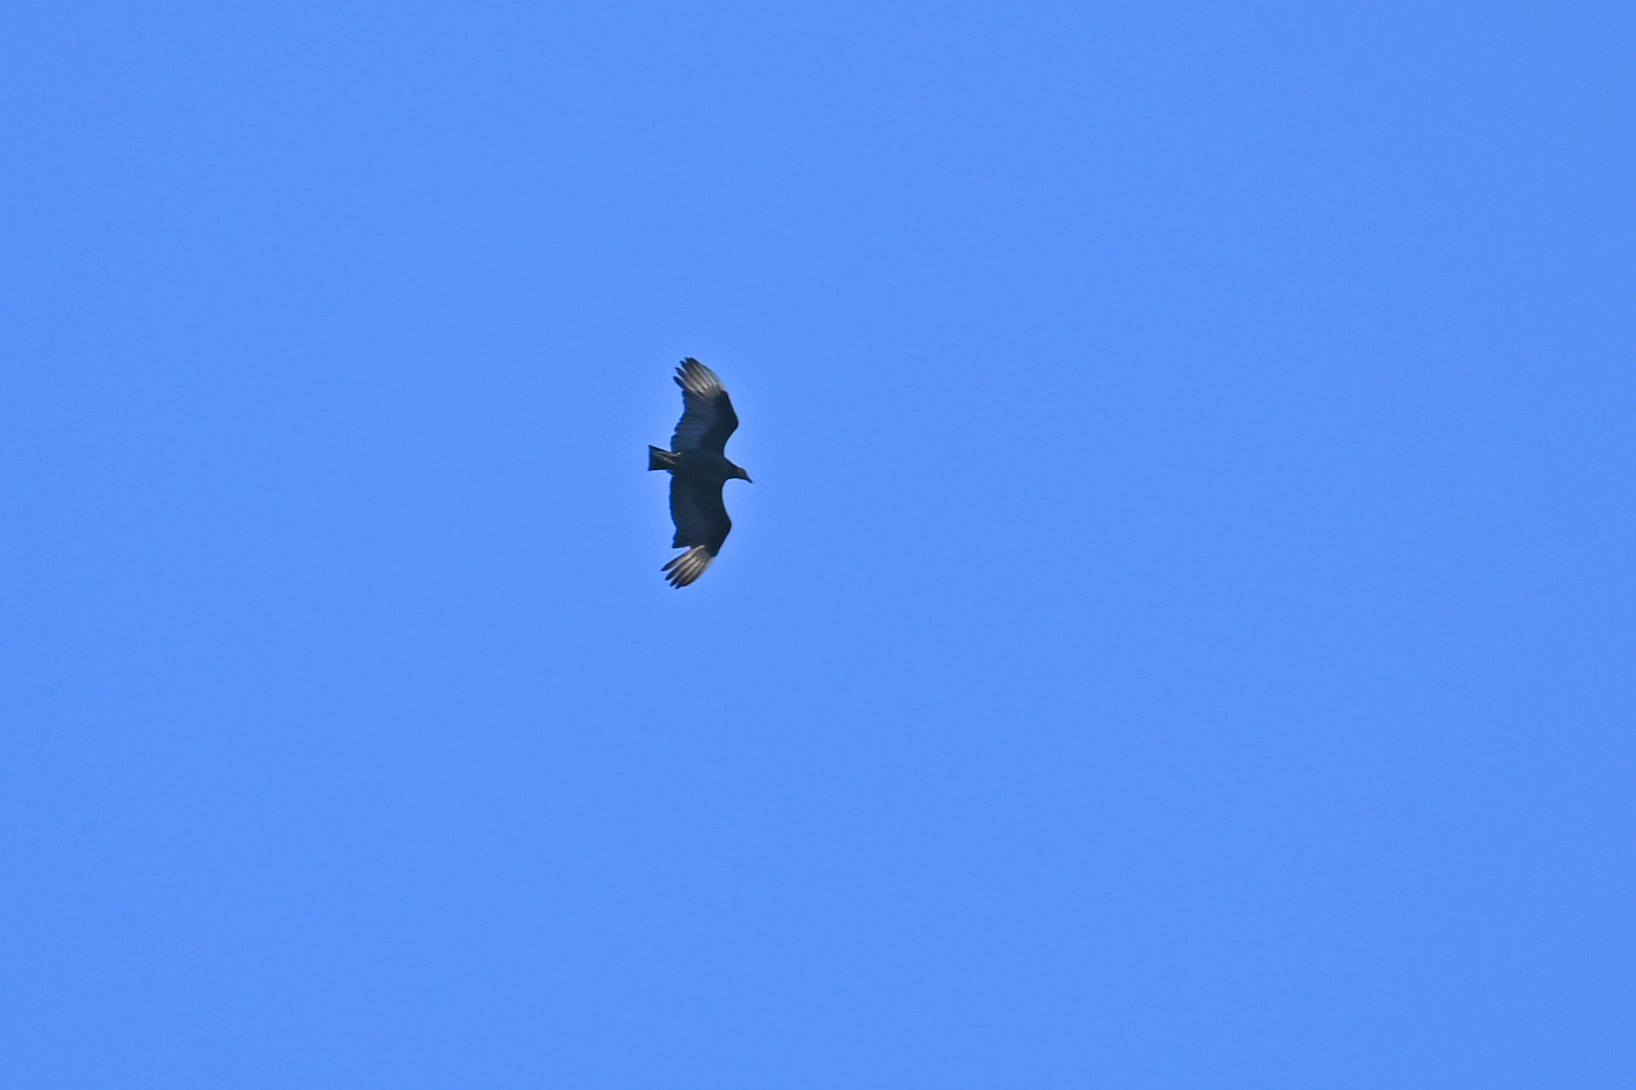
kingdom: Animalia
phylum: Chordata
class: Aves
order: Accipitriformes
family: Cathartidae
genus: Coragyps
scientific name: Coragyps atratus
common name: Black vulture
